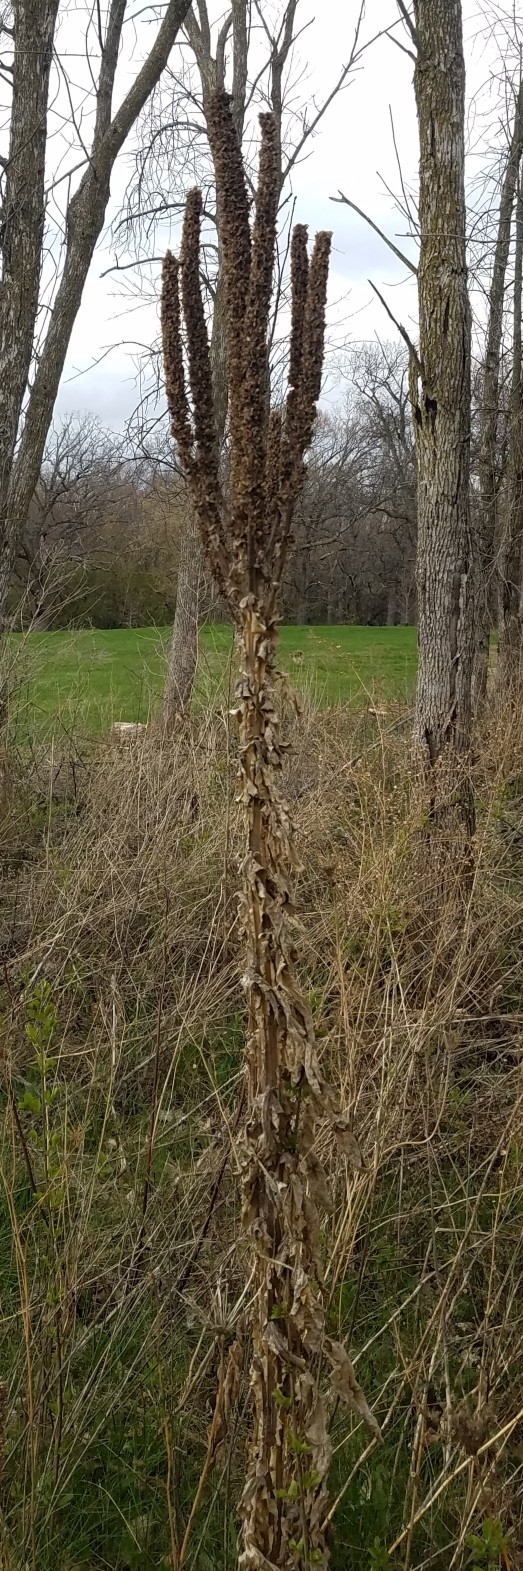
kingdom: Plantae
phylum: Tracheophyta
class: Magnoliopsida
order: Lamiales
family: Scrophulariaceae
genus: Verbascum
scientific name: Verbascum thapsus
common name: Common mullein
